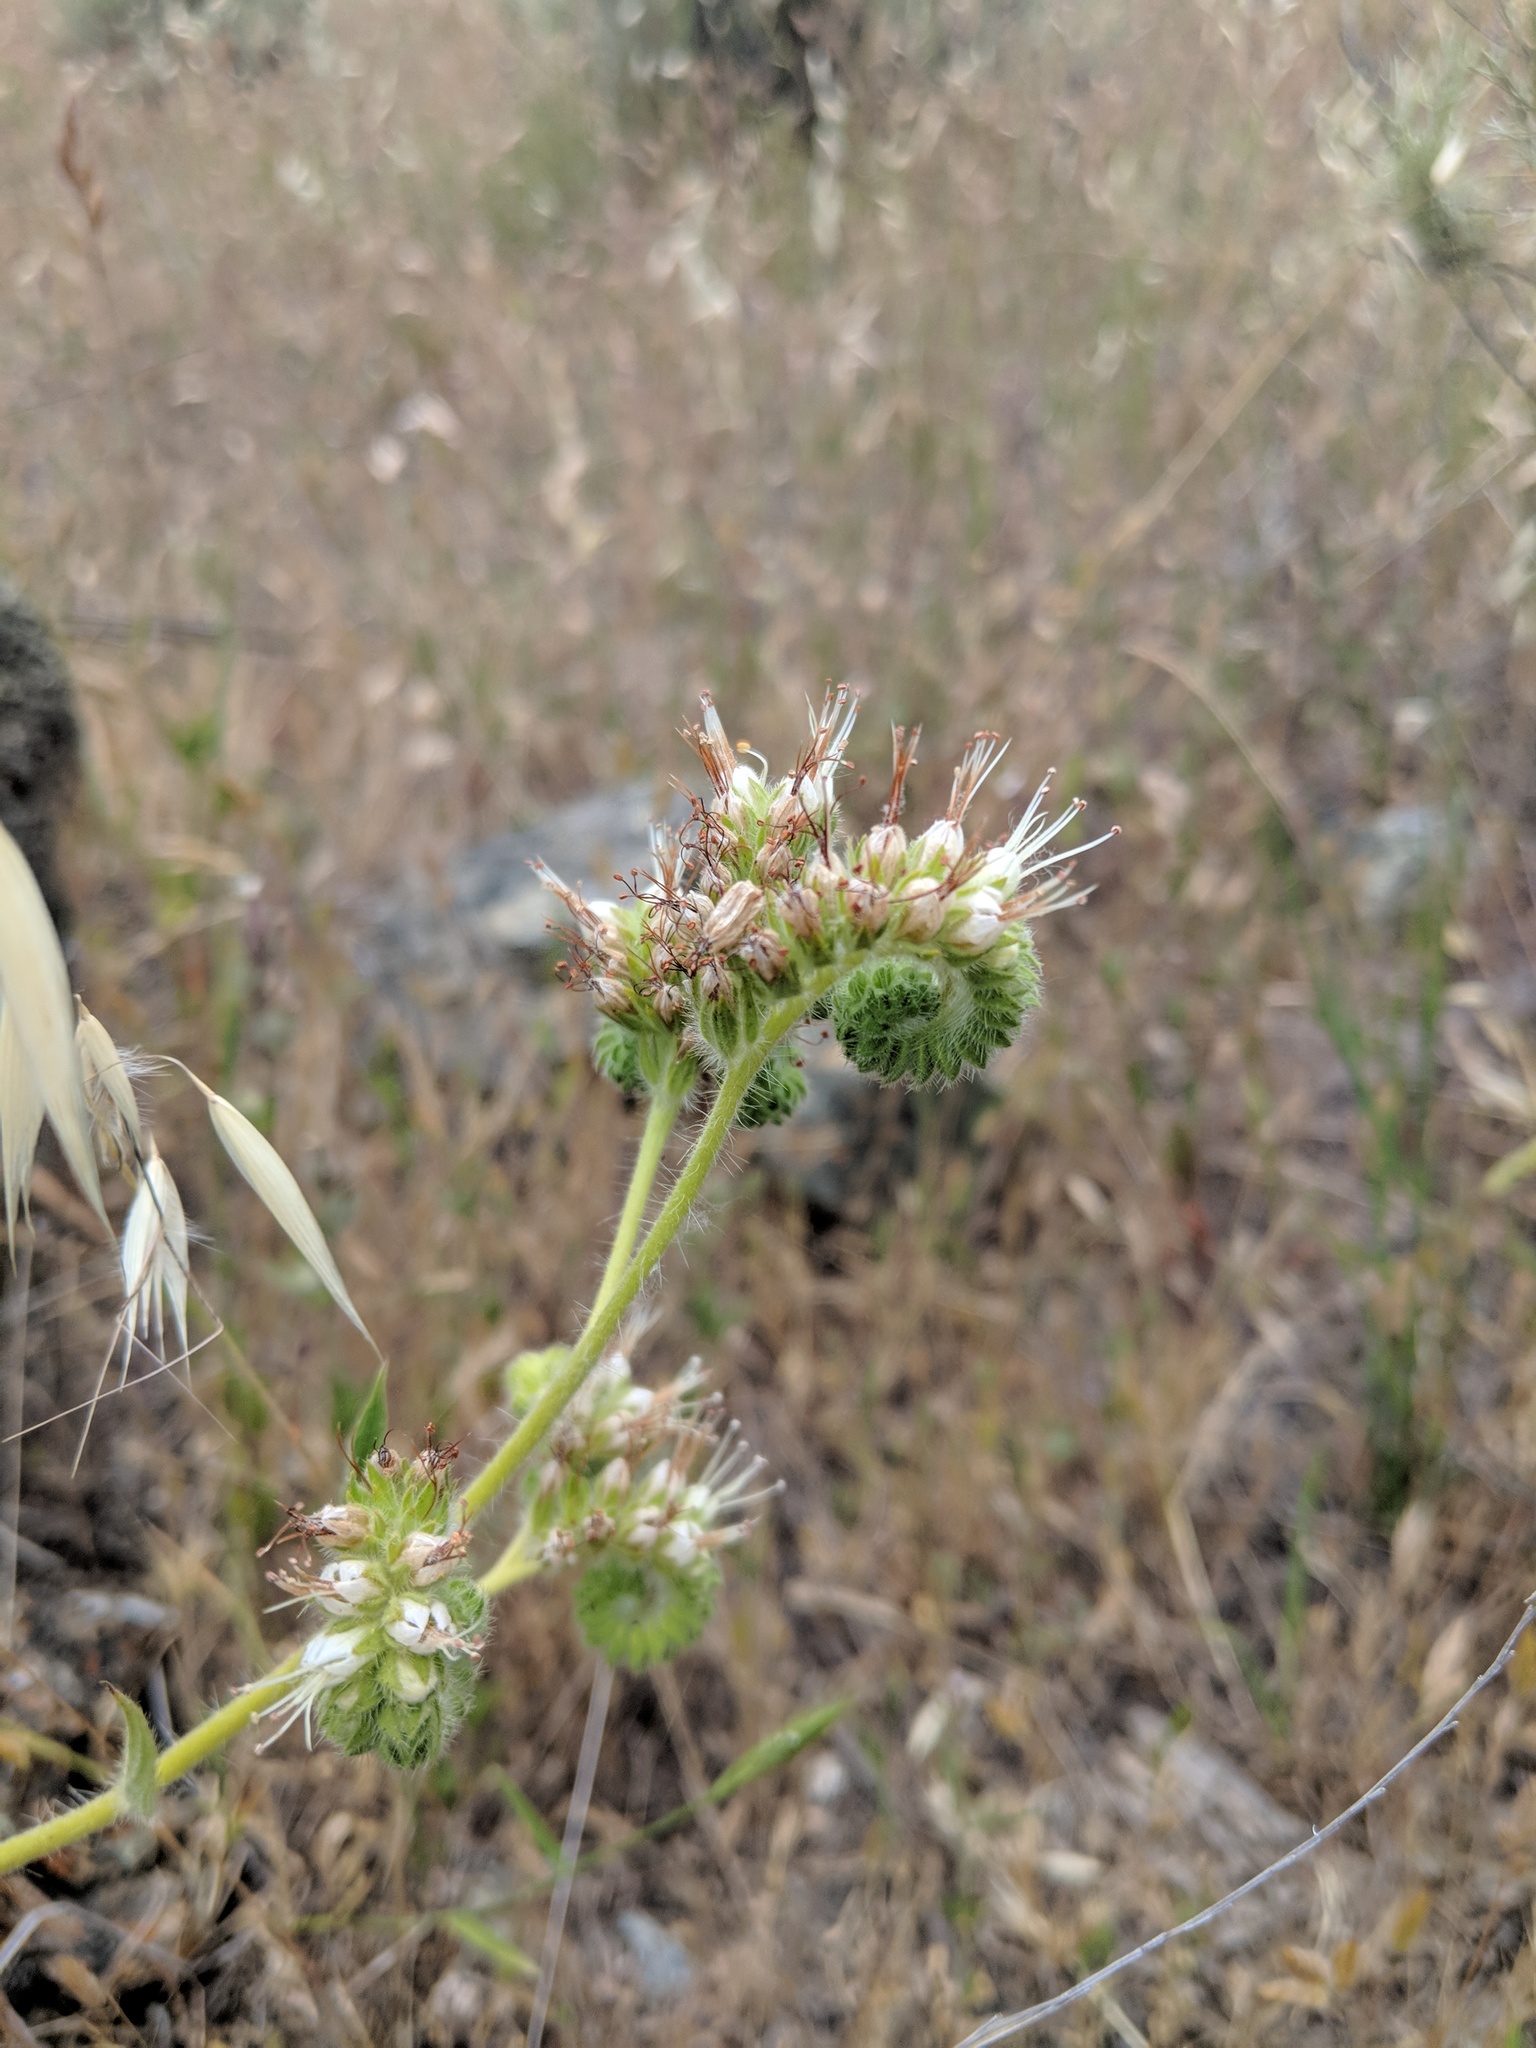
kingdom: Plantae
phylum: Tracheophyta
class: Magnoliopsida
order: Boraginales
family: Hydrophyllaceae
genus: Phacelia
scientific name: Phacelia imbricata
